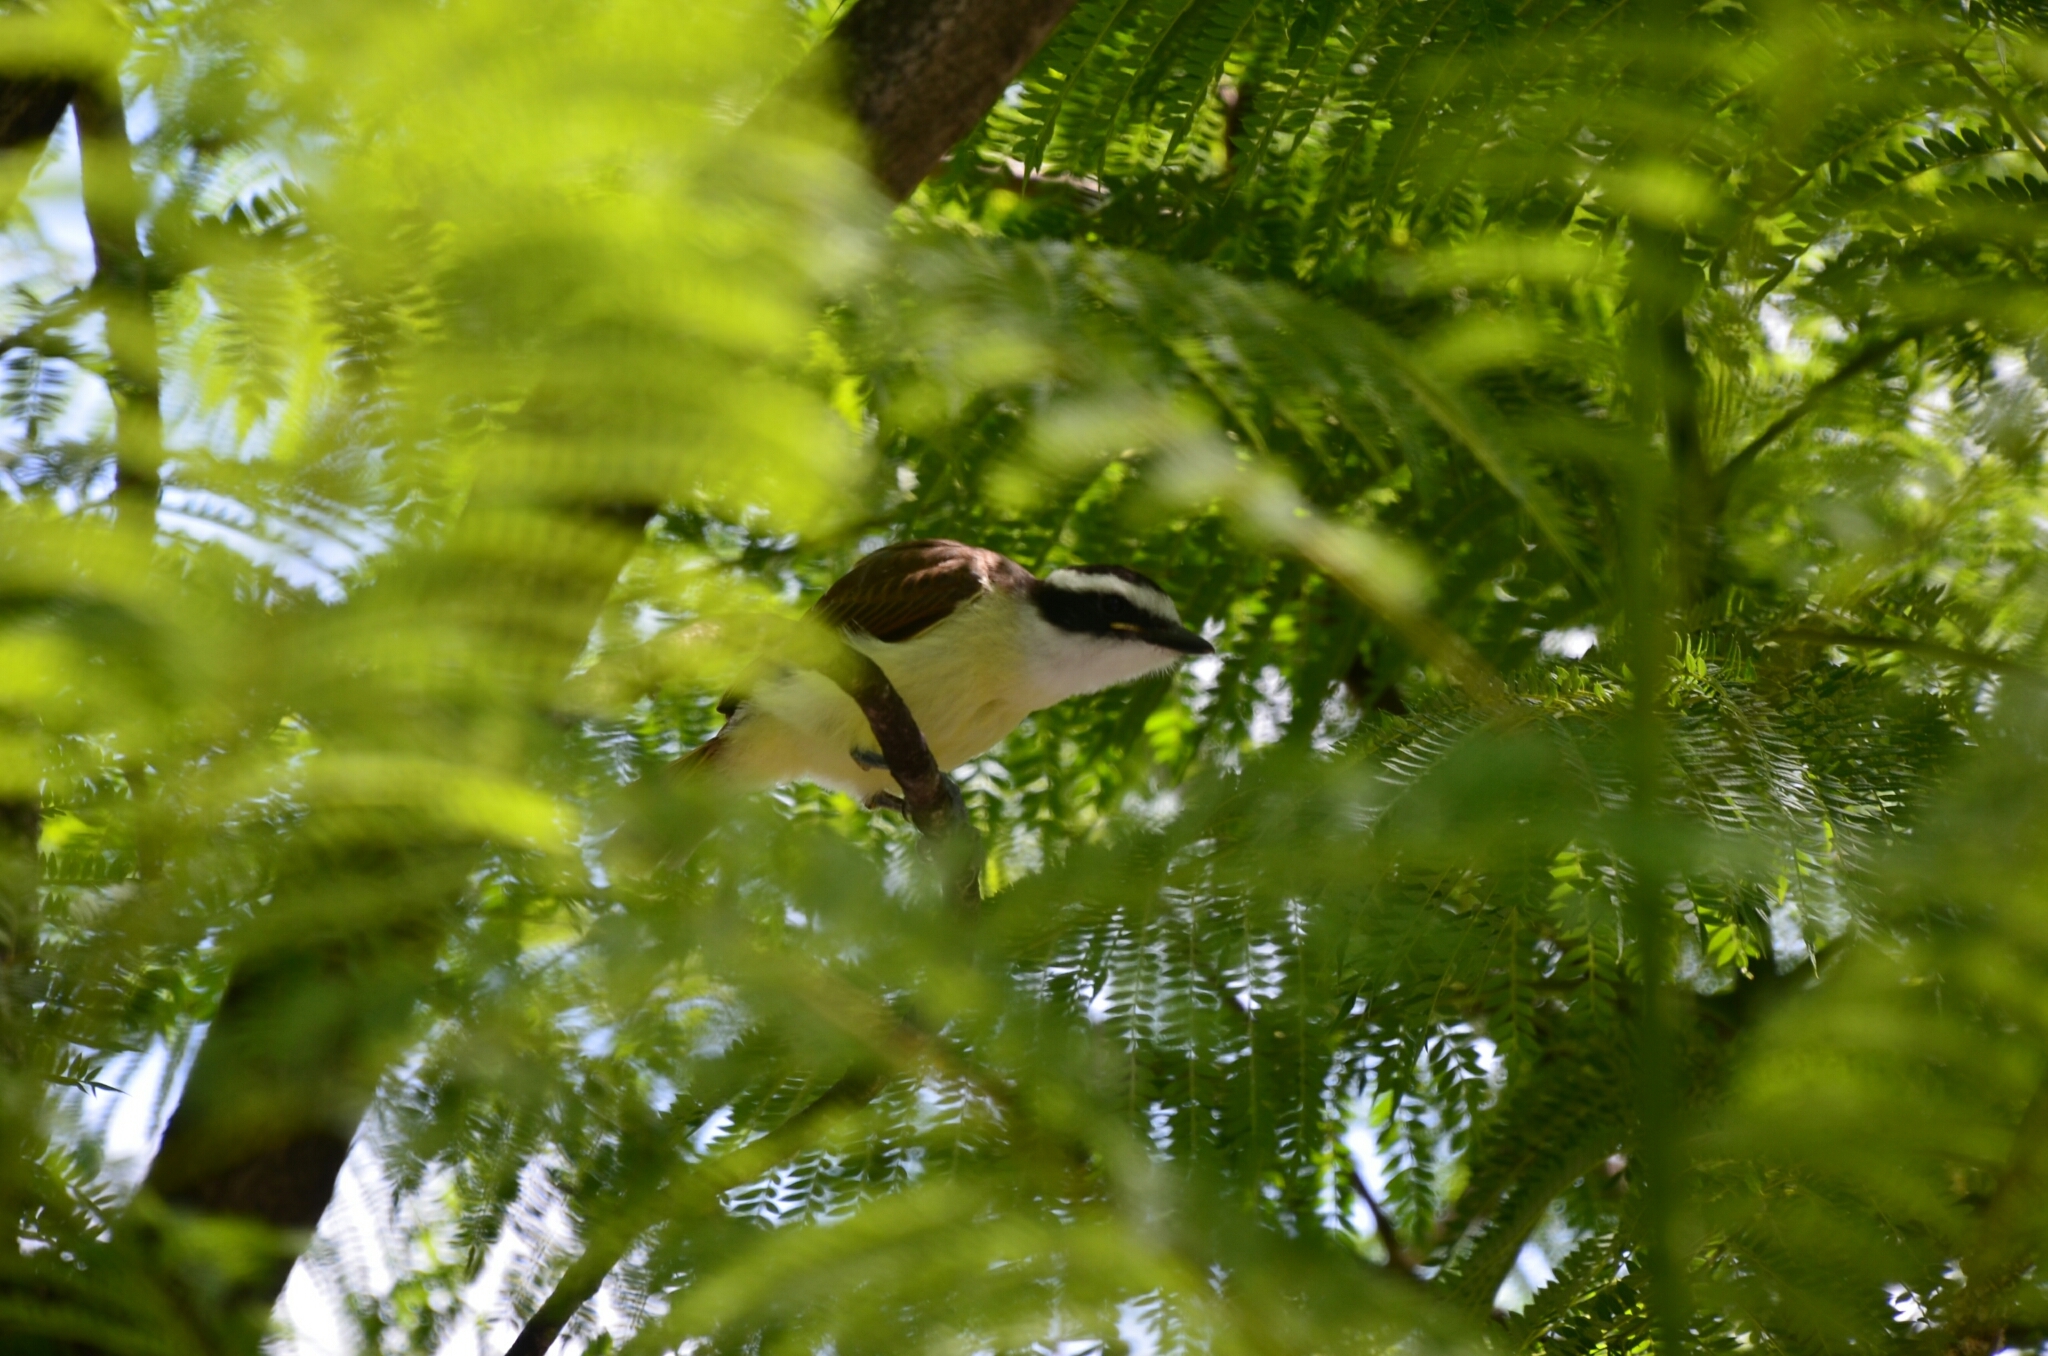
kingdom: Animalia
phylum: Chordata
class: Aves
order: Passeriformes
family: Tyrannidae
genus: Pitangus
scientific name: Pitangus sulphuratus
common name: Great kiskadee
